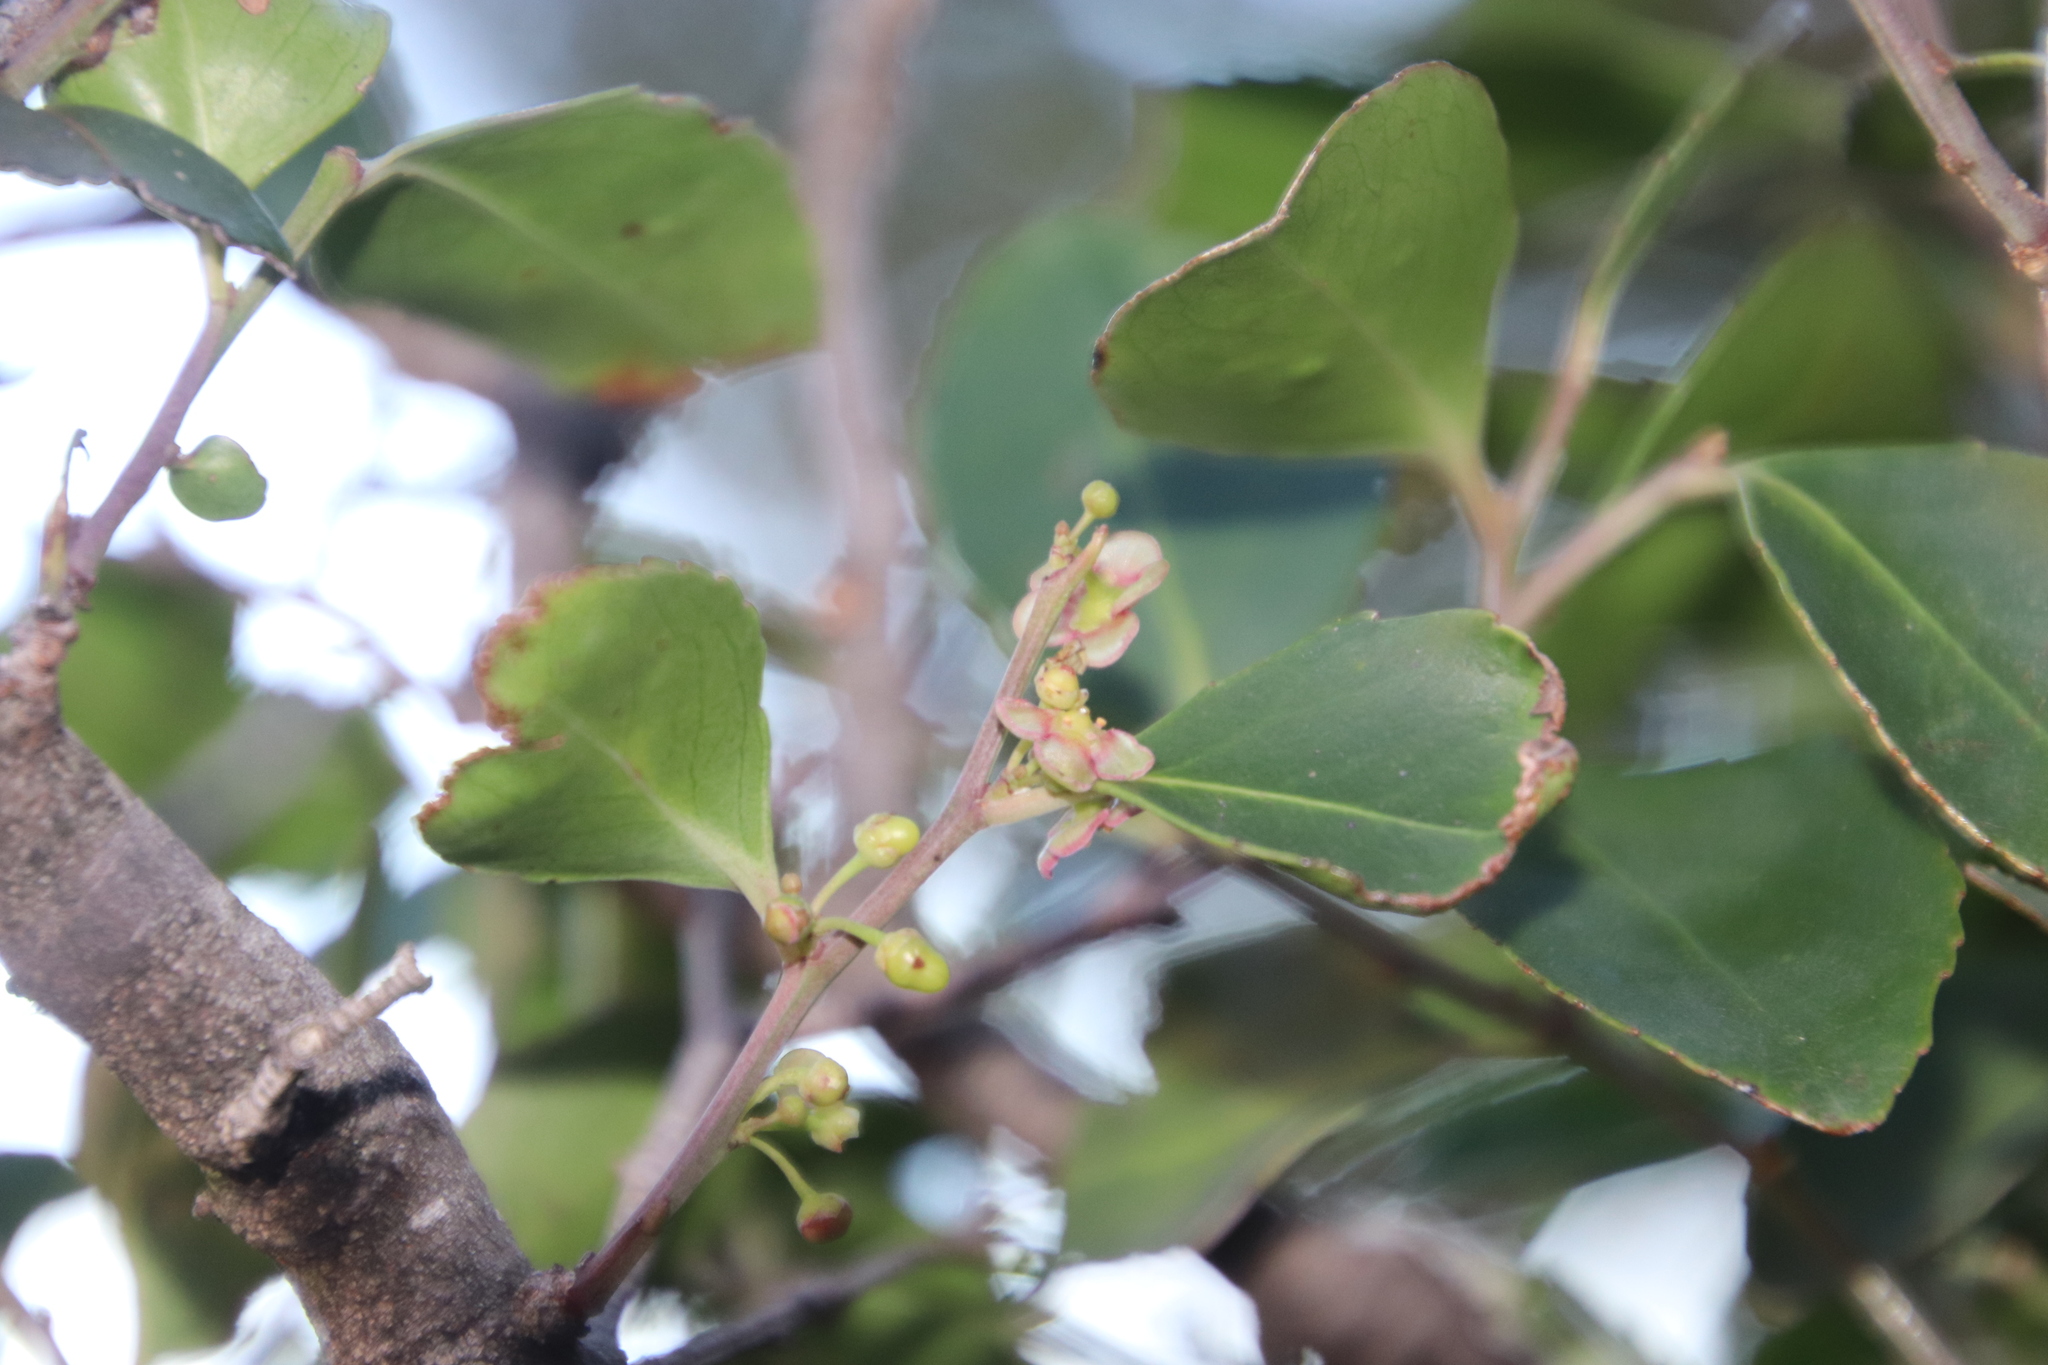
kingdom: Plantae
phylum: Tracheophyta
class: Magnoliopsida
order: Celastrales
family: Celastraceae
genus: Gymnosporia
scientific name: Gymnosporia acuminata
